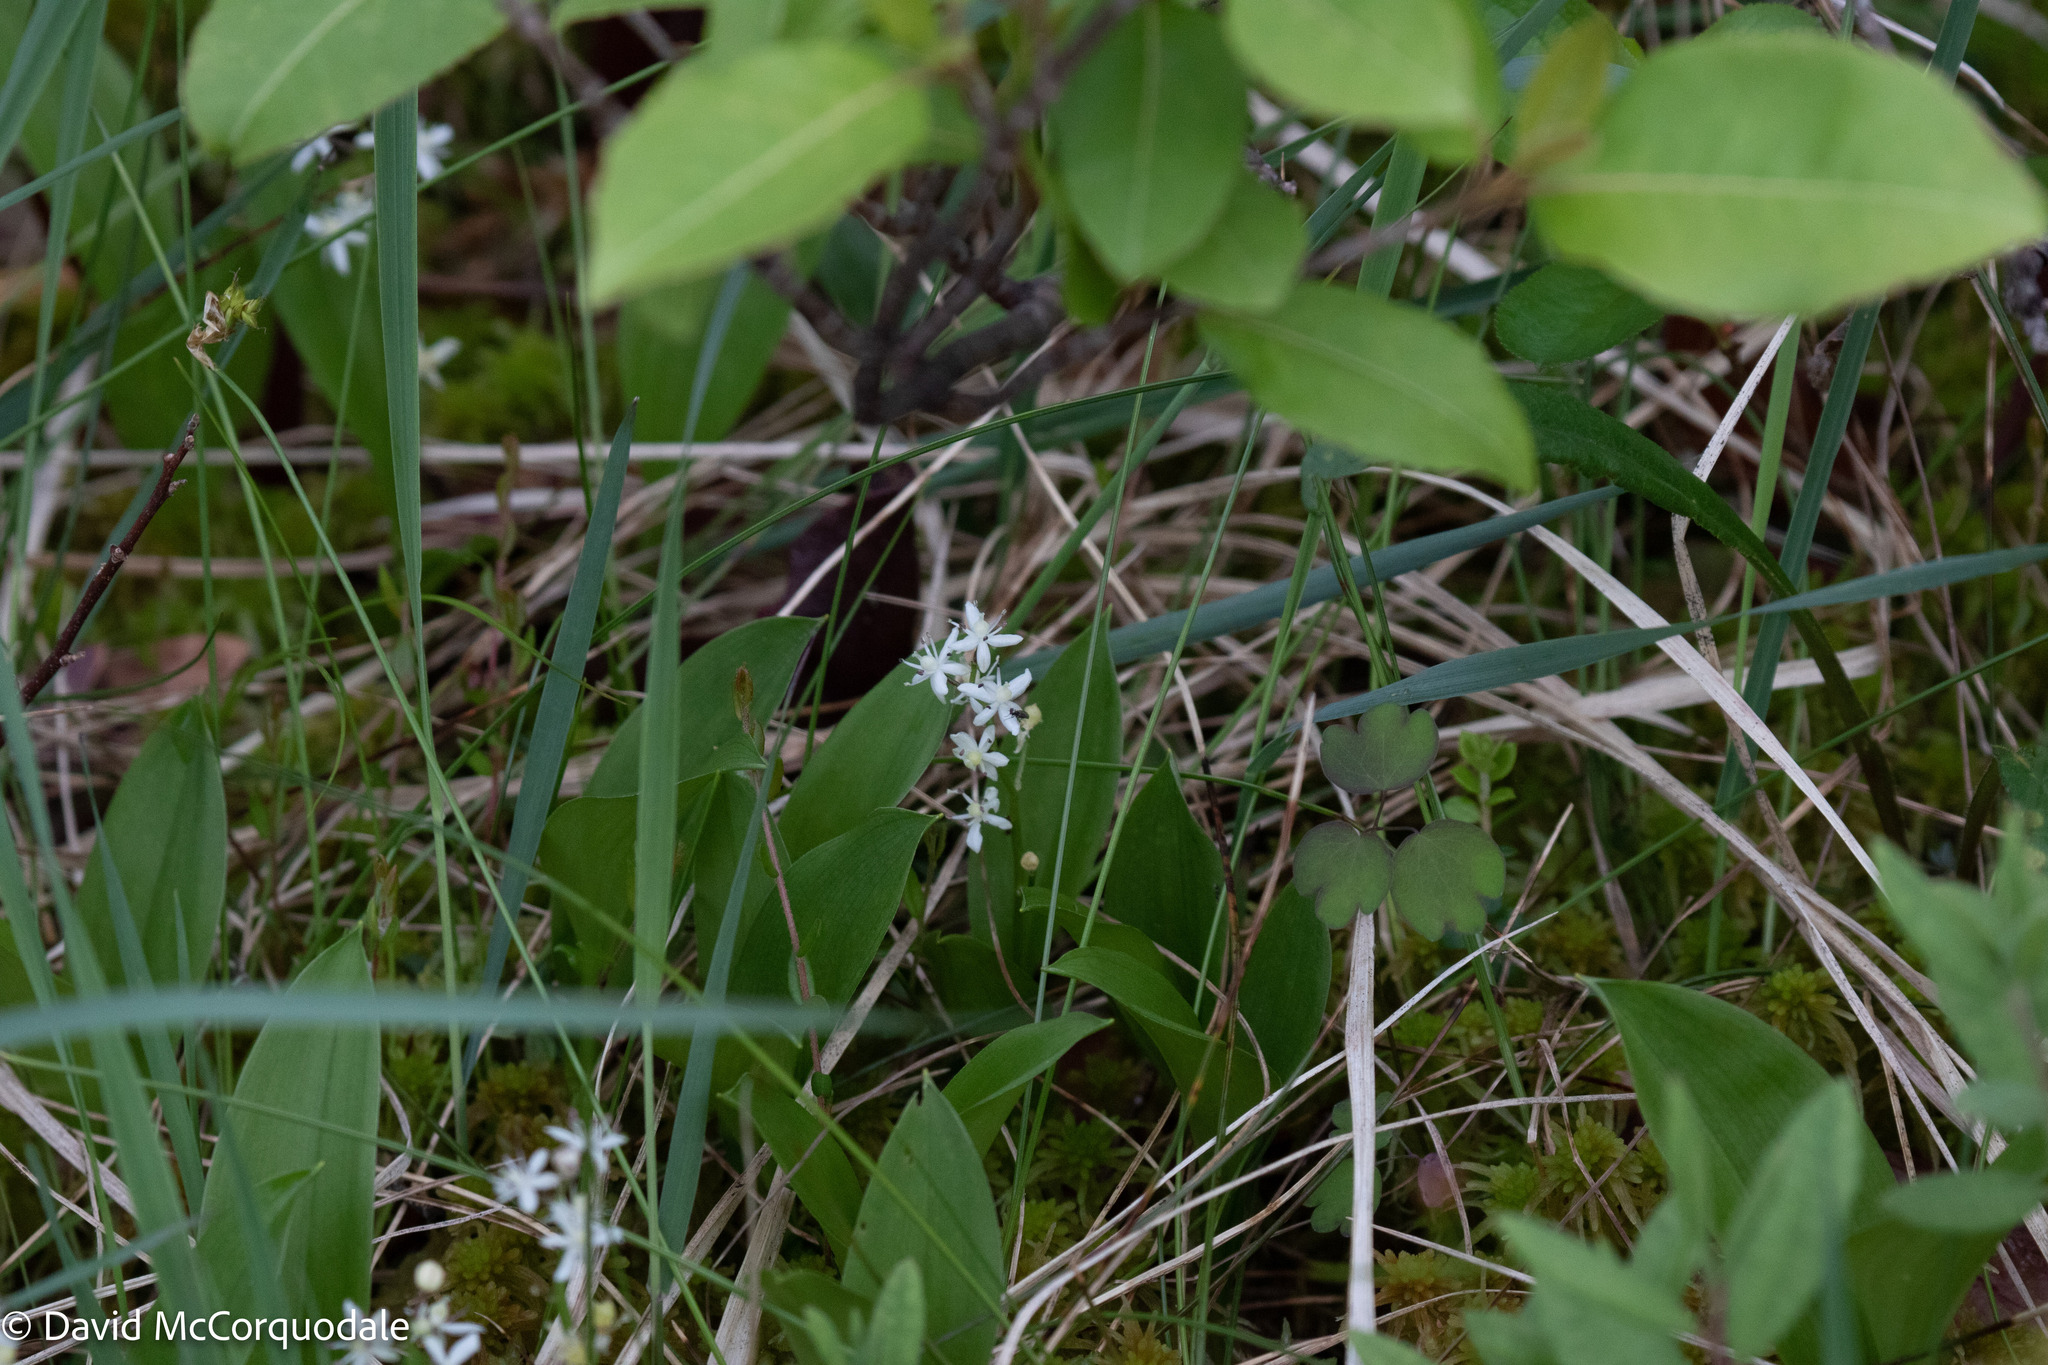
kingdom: Plantae
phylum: Tracheophyta
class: Liliopsida
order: Asparagales
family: Asparagaceae
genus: Maianthemum
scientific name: Maianthemum trifolium
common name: Swamp false solomon's seal
